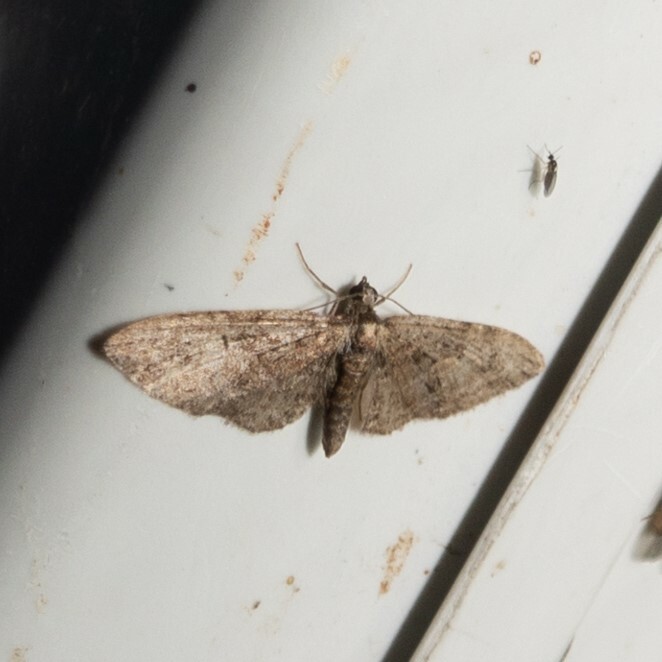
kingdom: Animalia
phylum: Arthropoda
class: Insecta
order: Lepidoptera
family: Geometridae
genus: Eupithecia
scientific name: Eupithecia abbreviata
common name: Brindled pug
